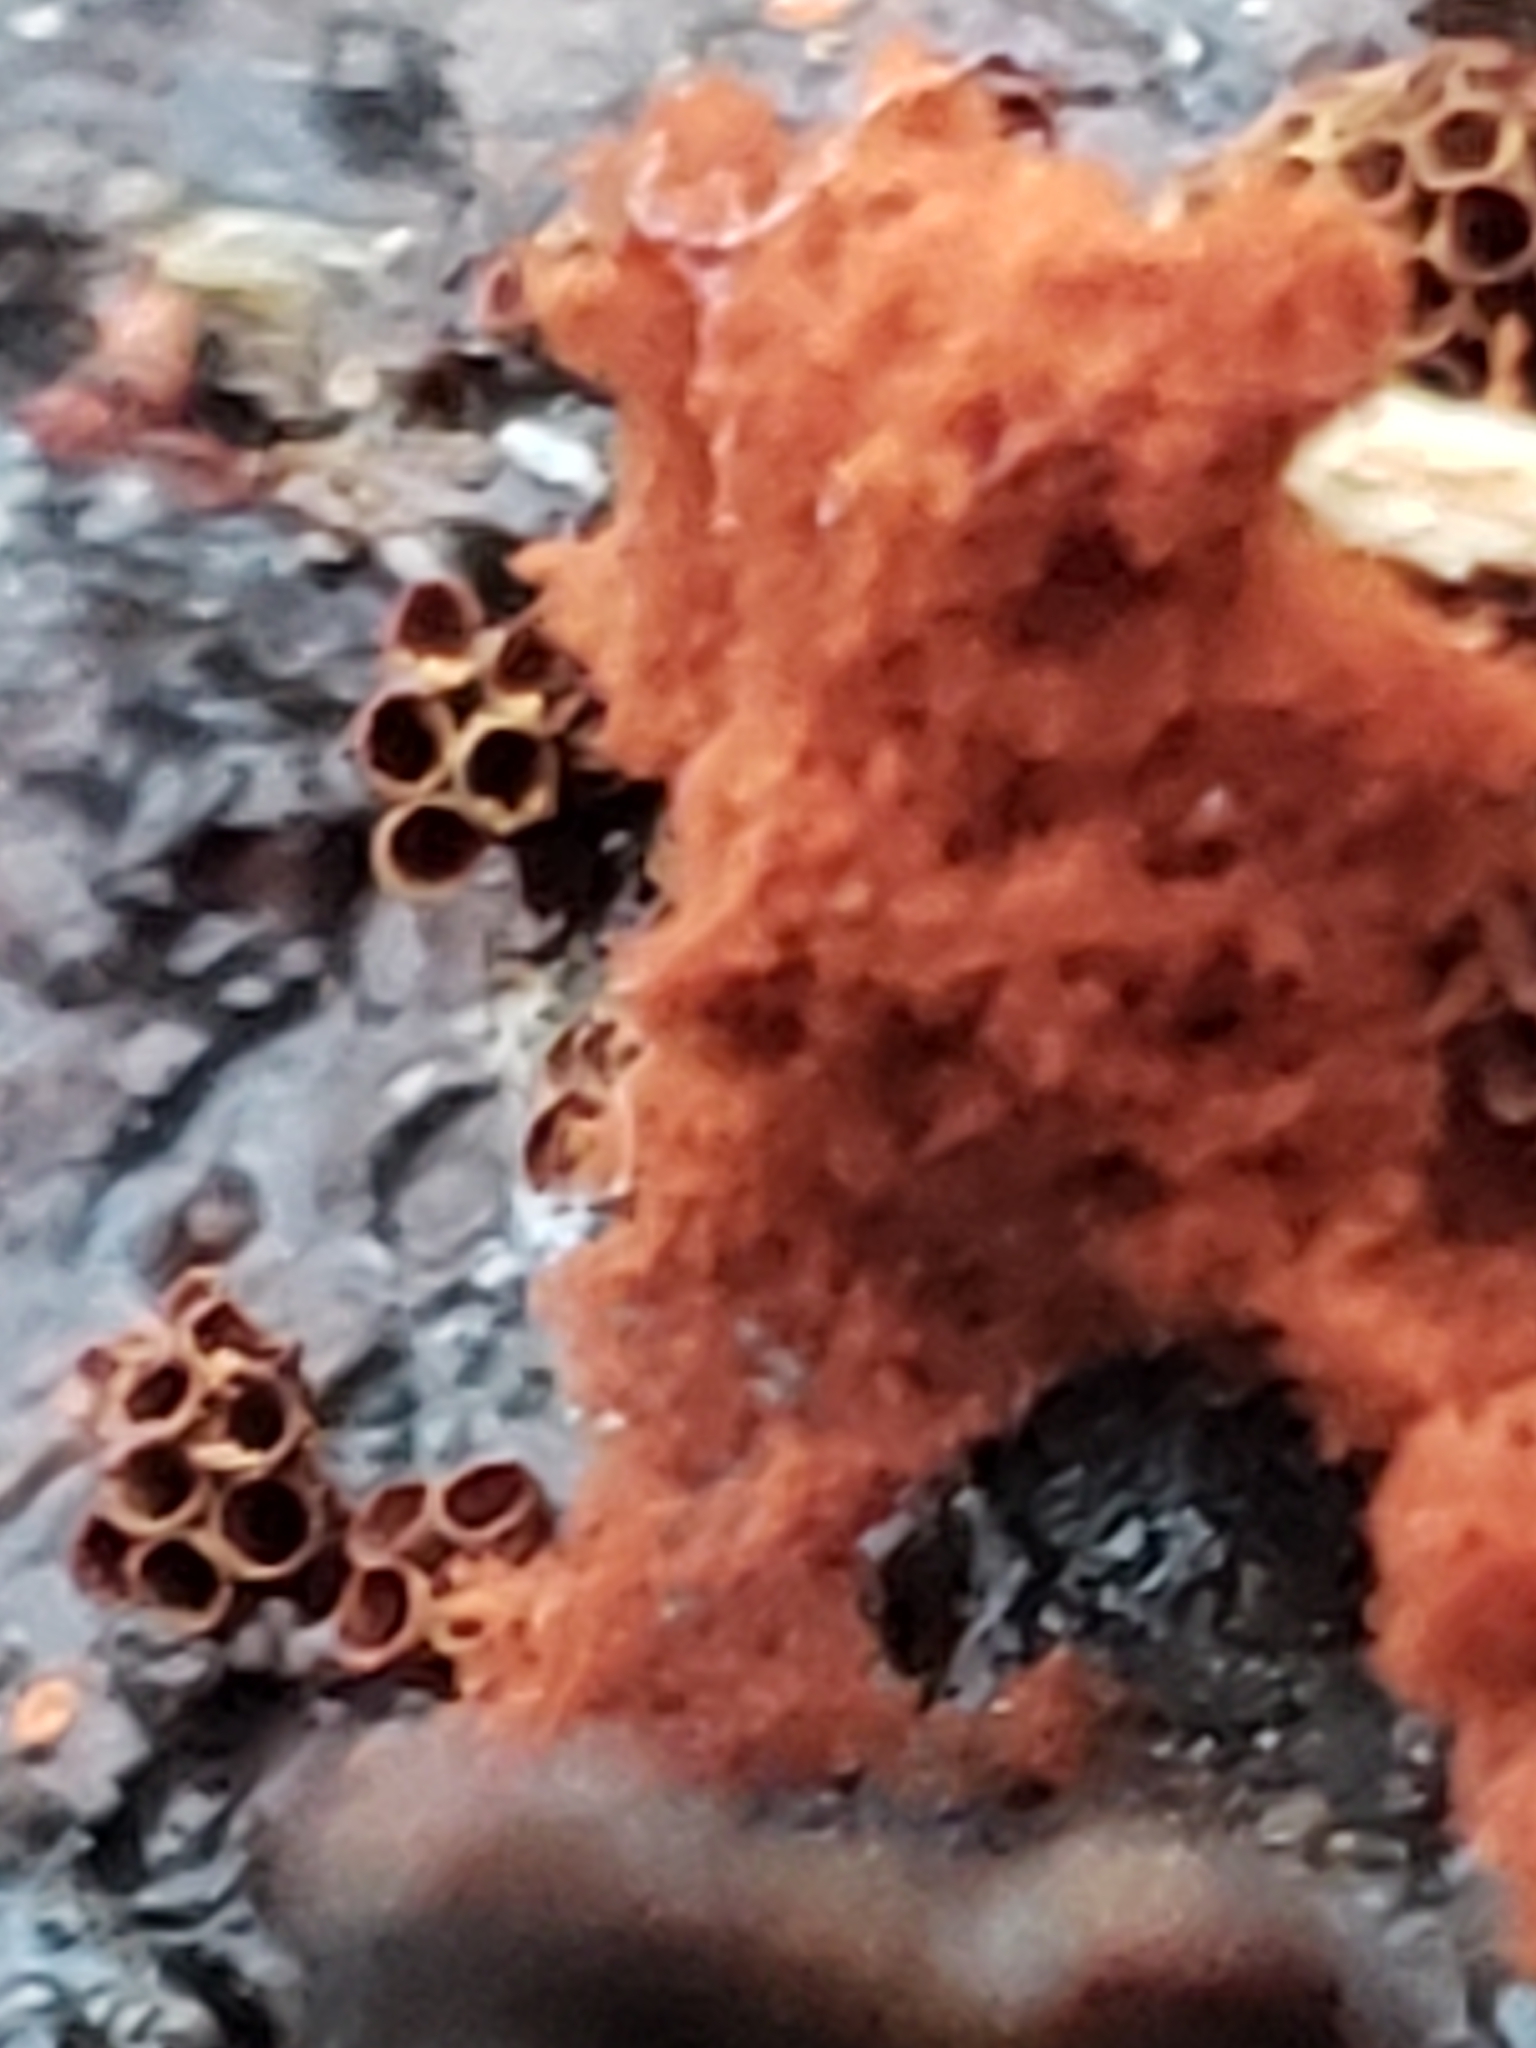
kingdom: Protozoa
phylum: Mycetozoa
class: Myxomycetes
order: Trichiales
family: Trichiaceae
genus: Metatrichia
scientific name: Metatrichia vesparia
